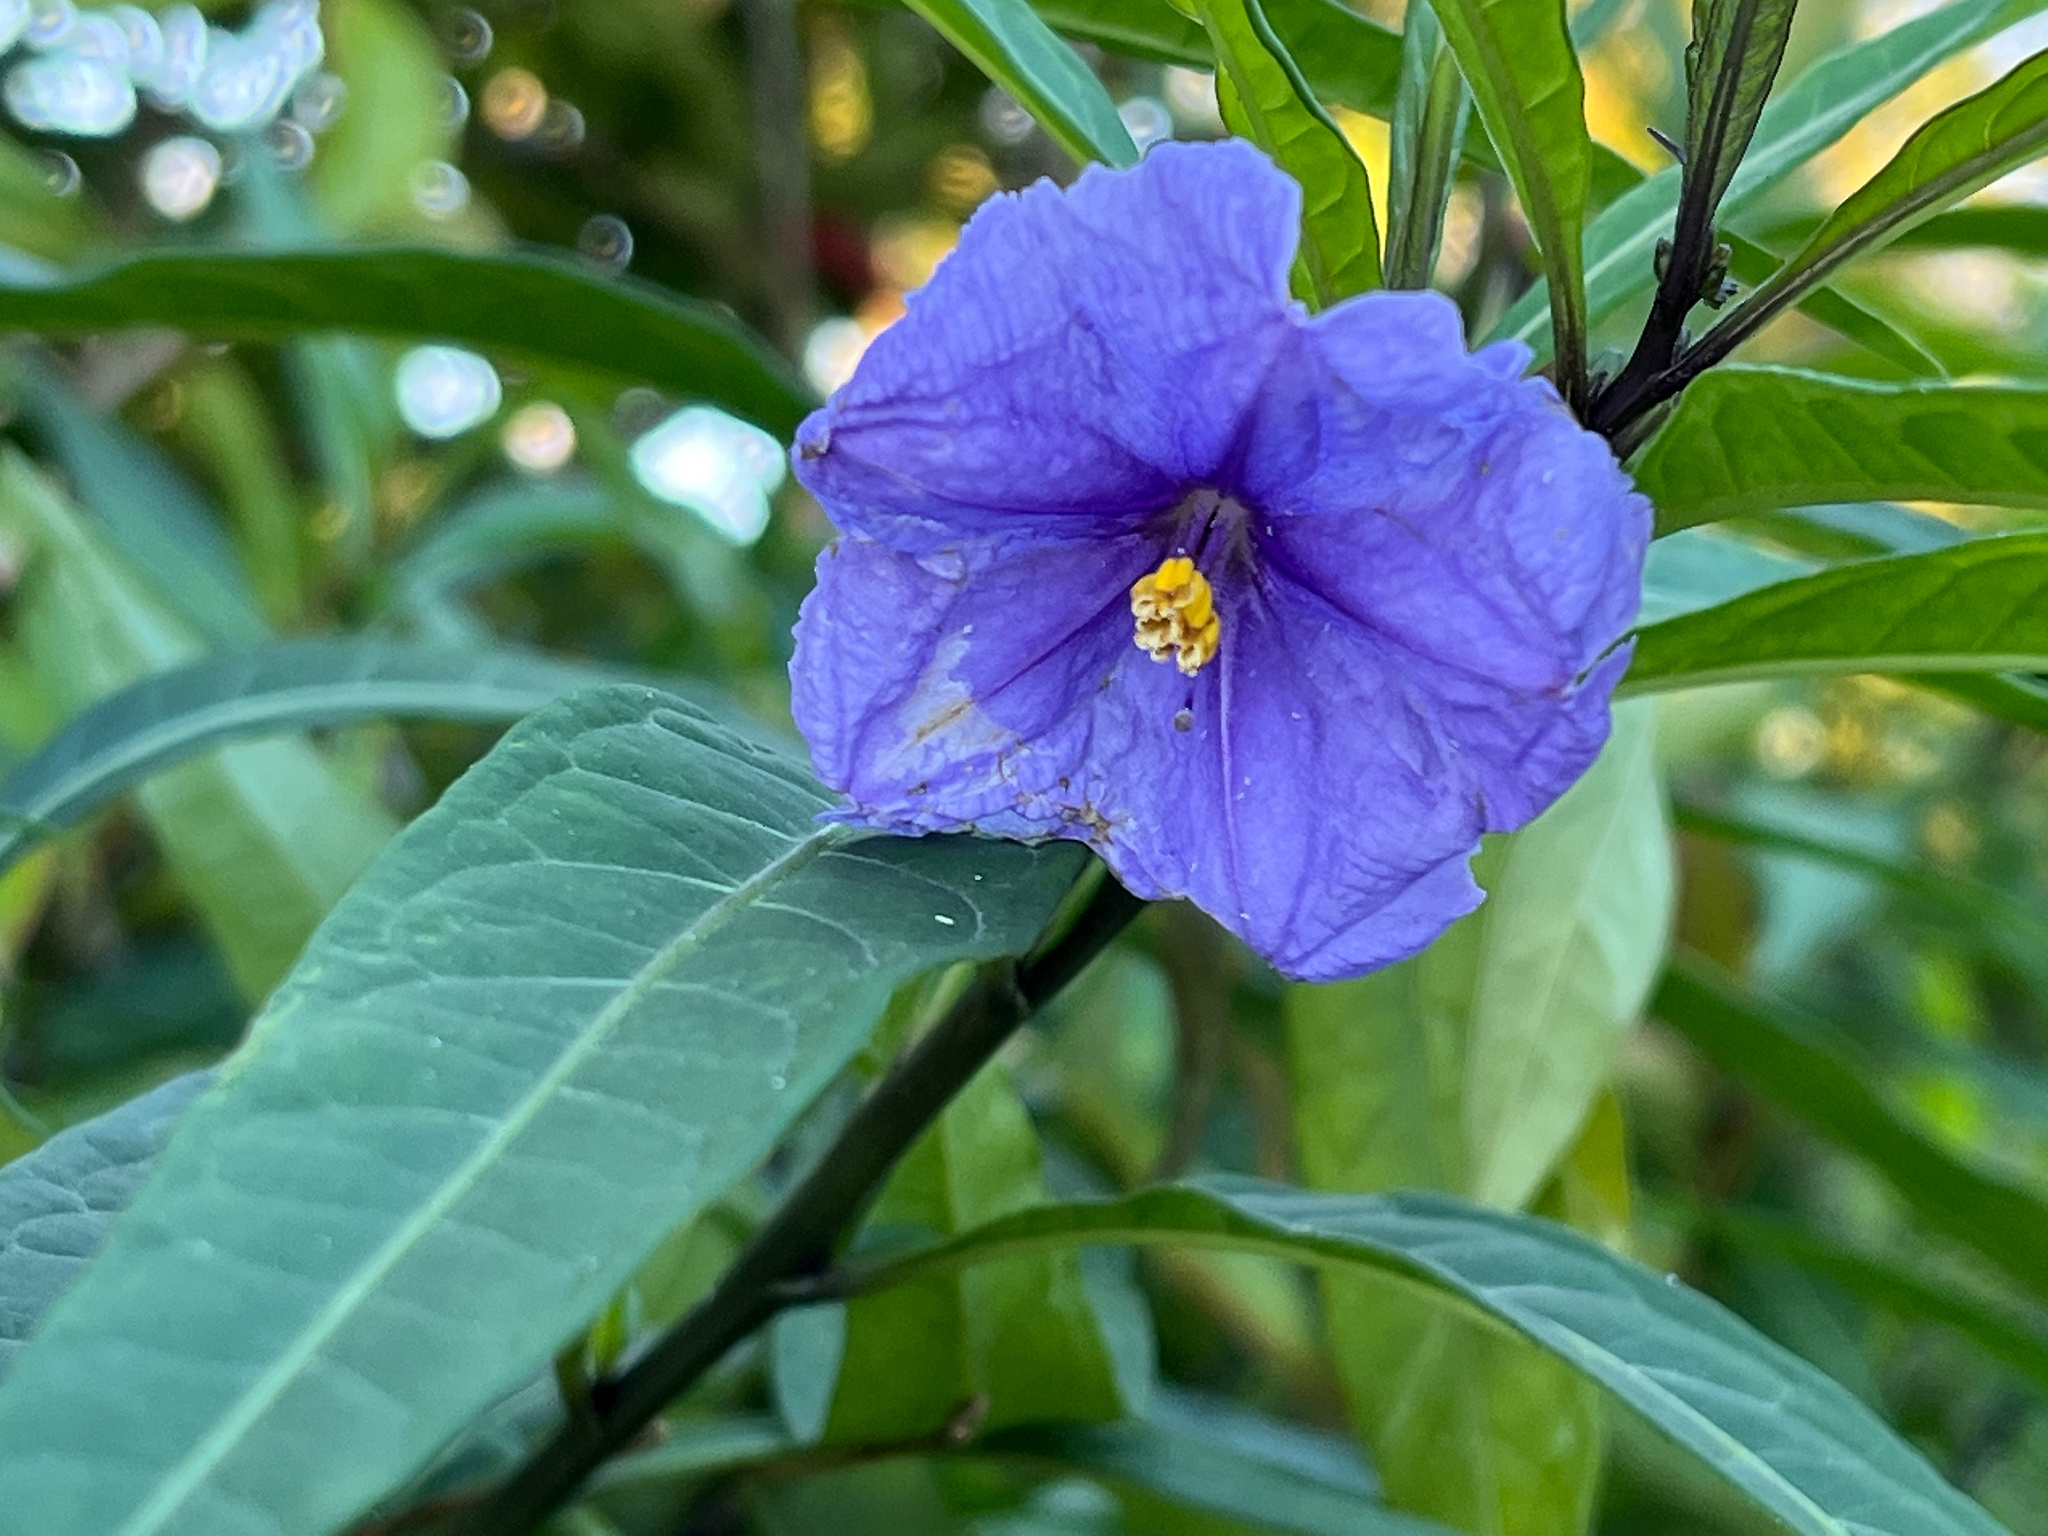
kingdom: Plantae
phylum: Tracheophyta
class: Magnoliopsida
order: Solanales
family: Solanaceae
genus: Solanum
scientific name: Solanum laciniatum
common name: Kangaroo-apple
